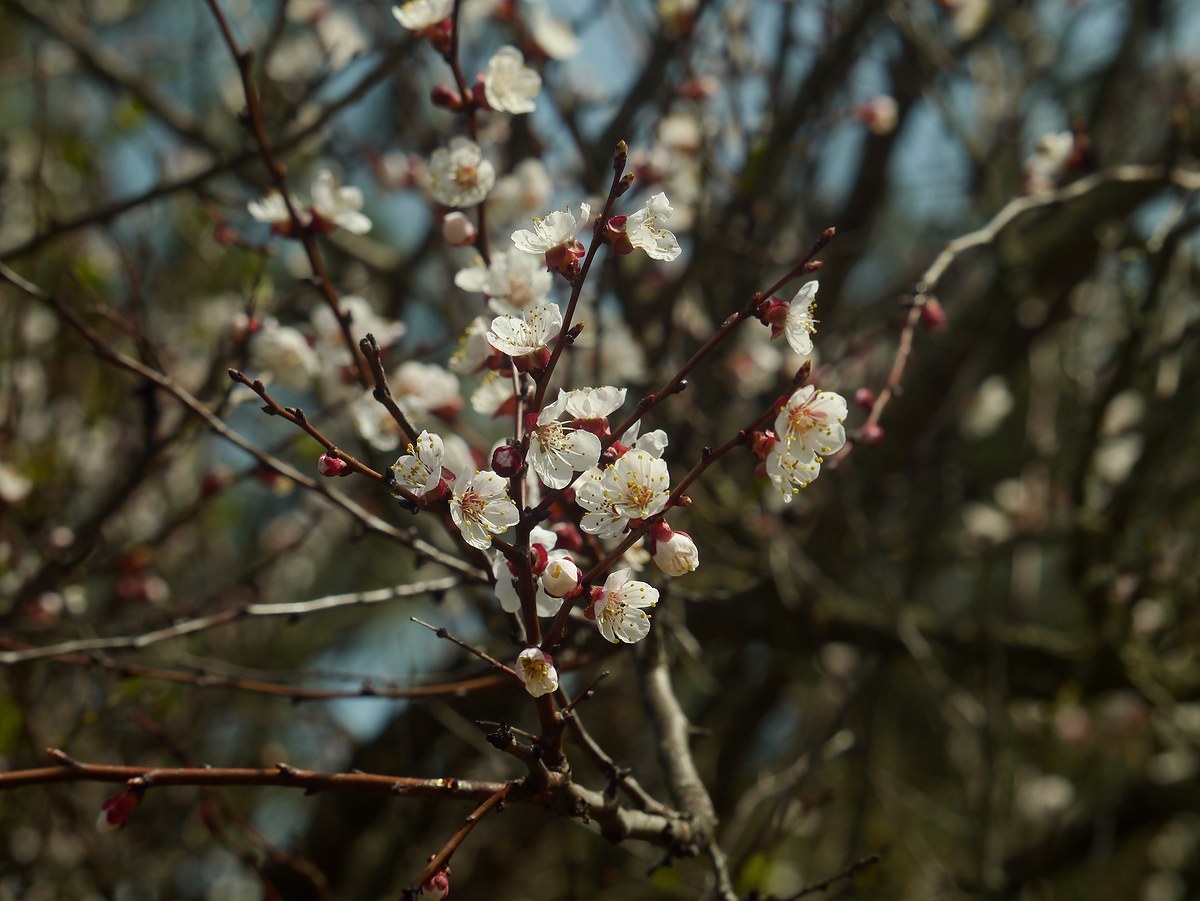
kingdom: Plantae
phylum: Tracheophyta
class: Magnoliopsida
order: Rosales
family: Rosaceae
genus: Prunus
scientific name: Prunus armeniaca
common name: Apricot
